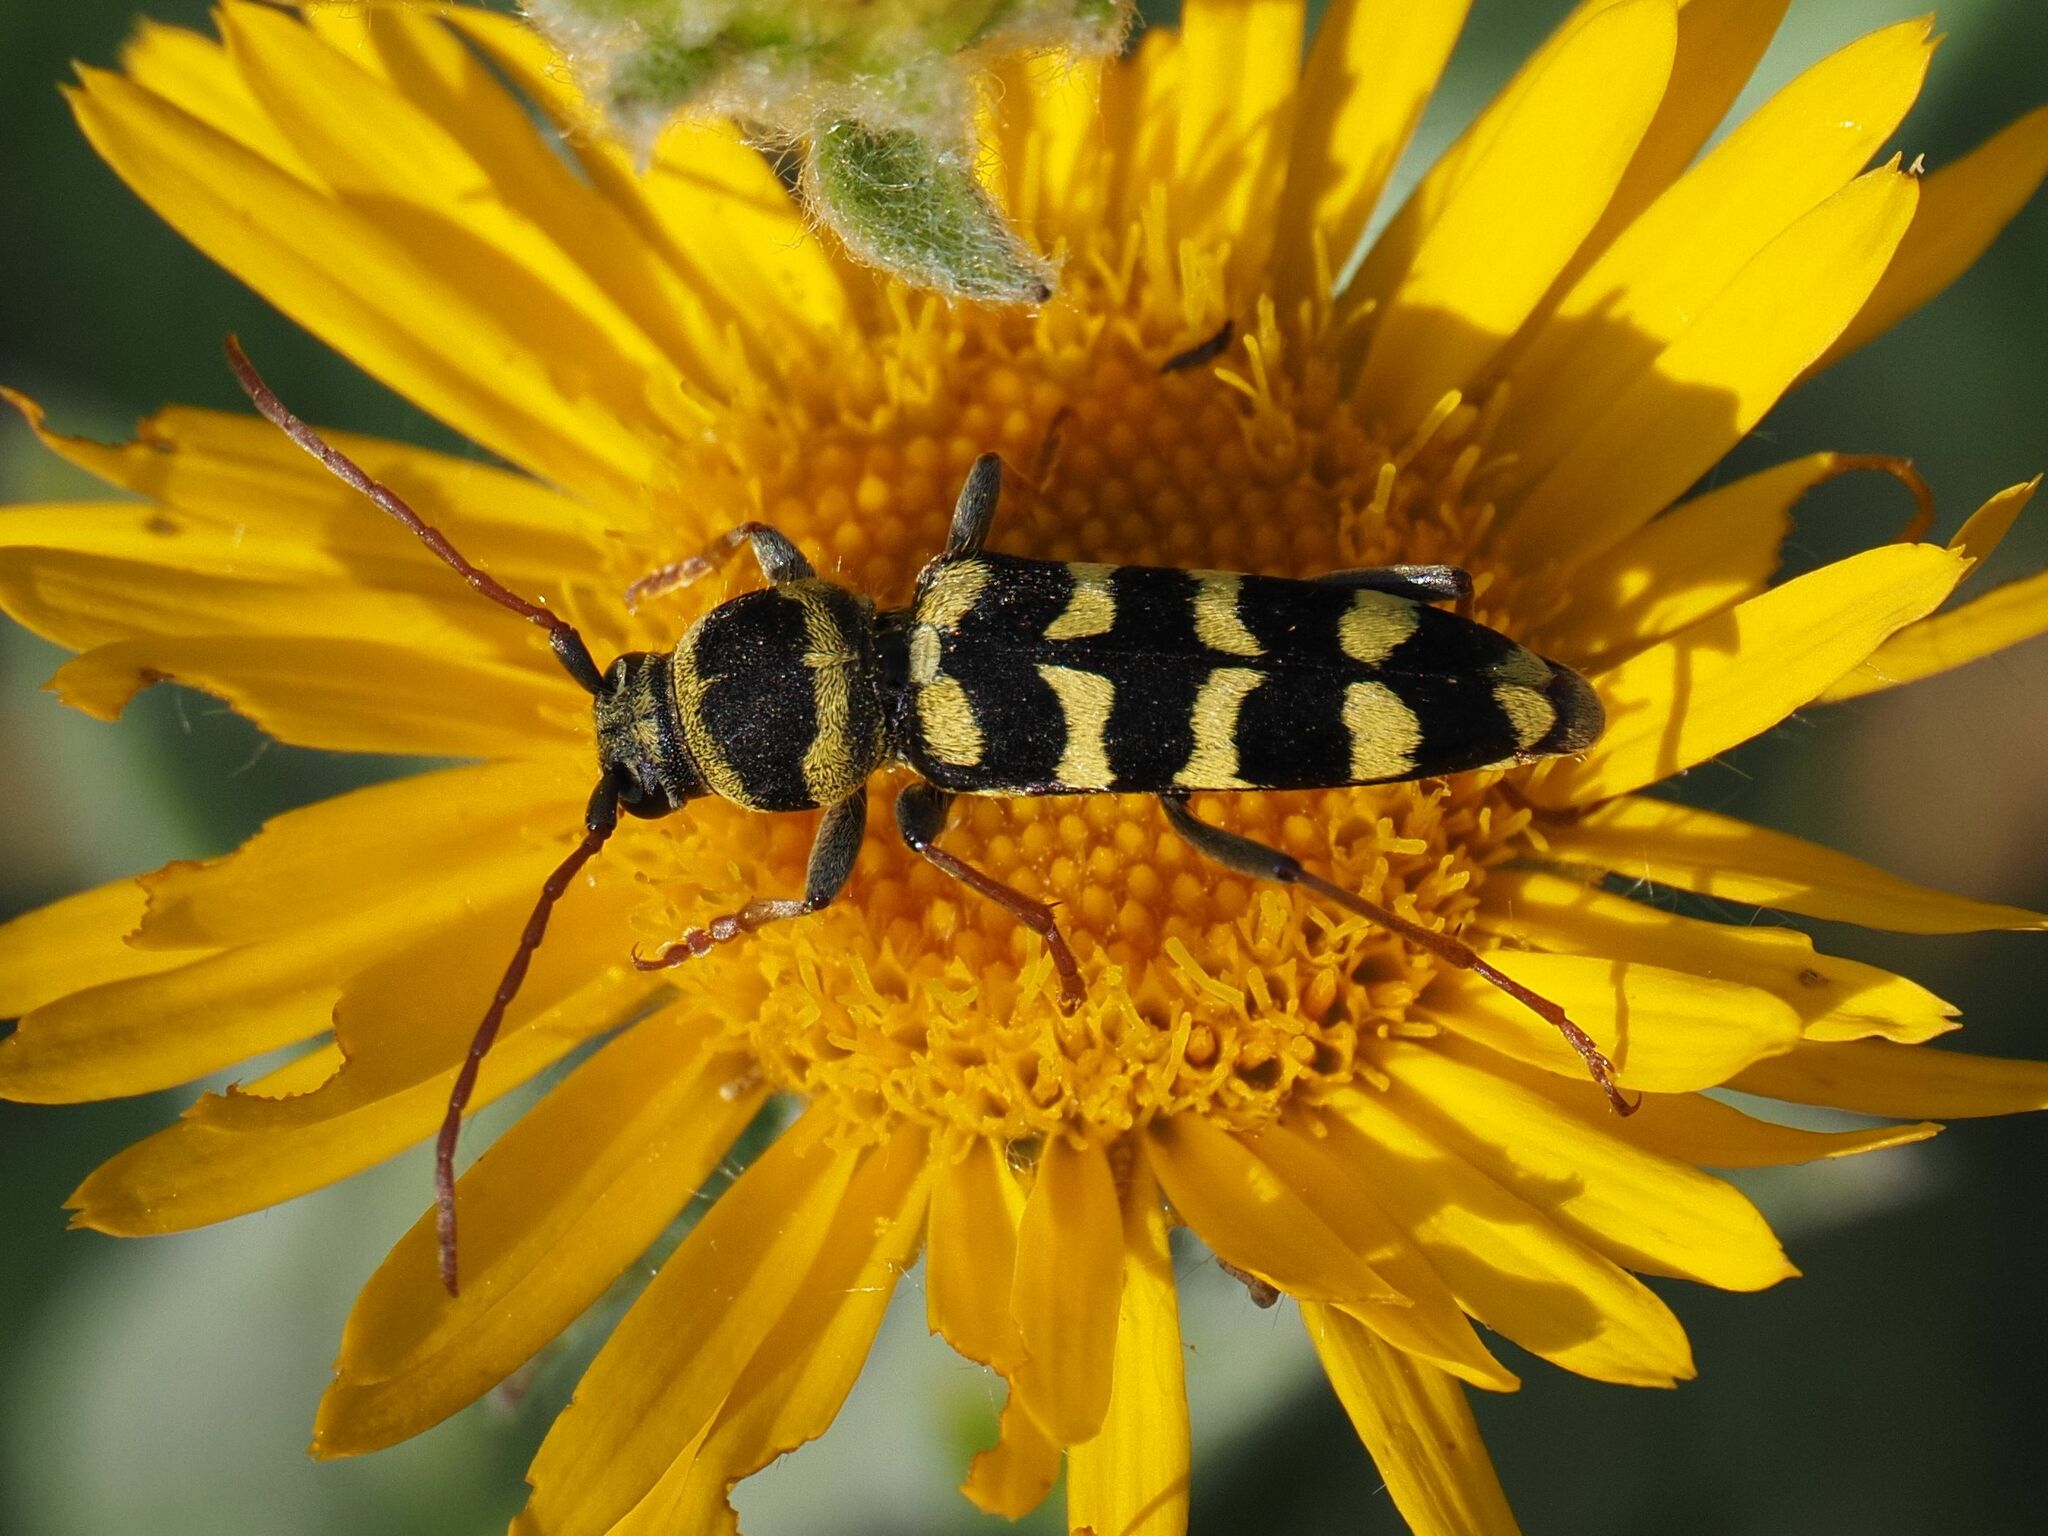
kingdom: Animalia
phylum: Arthropoda
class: Insecta
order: Coleoptera
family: Cerambycidae
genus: Plagionotus
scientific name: Plagionotus floralis
